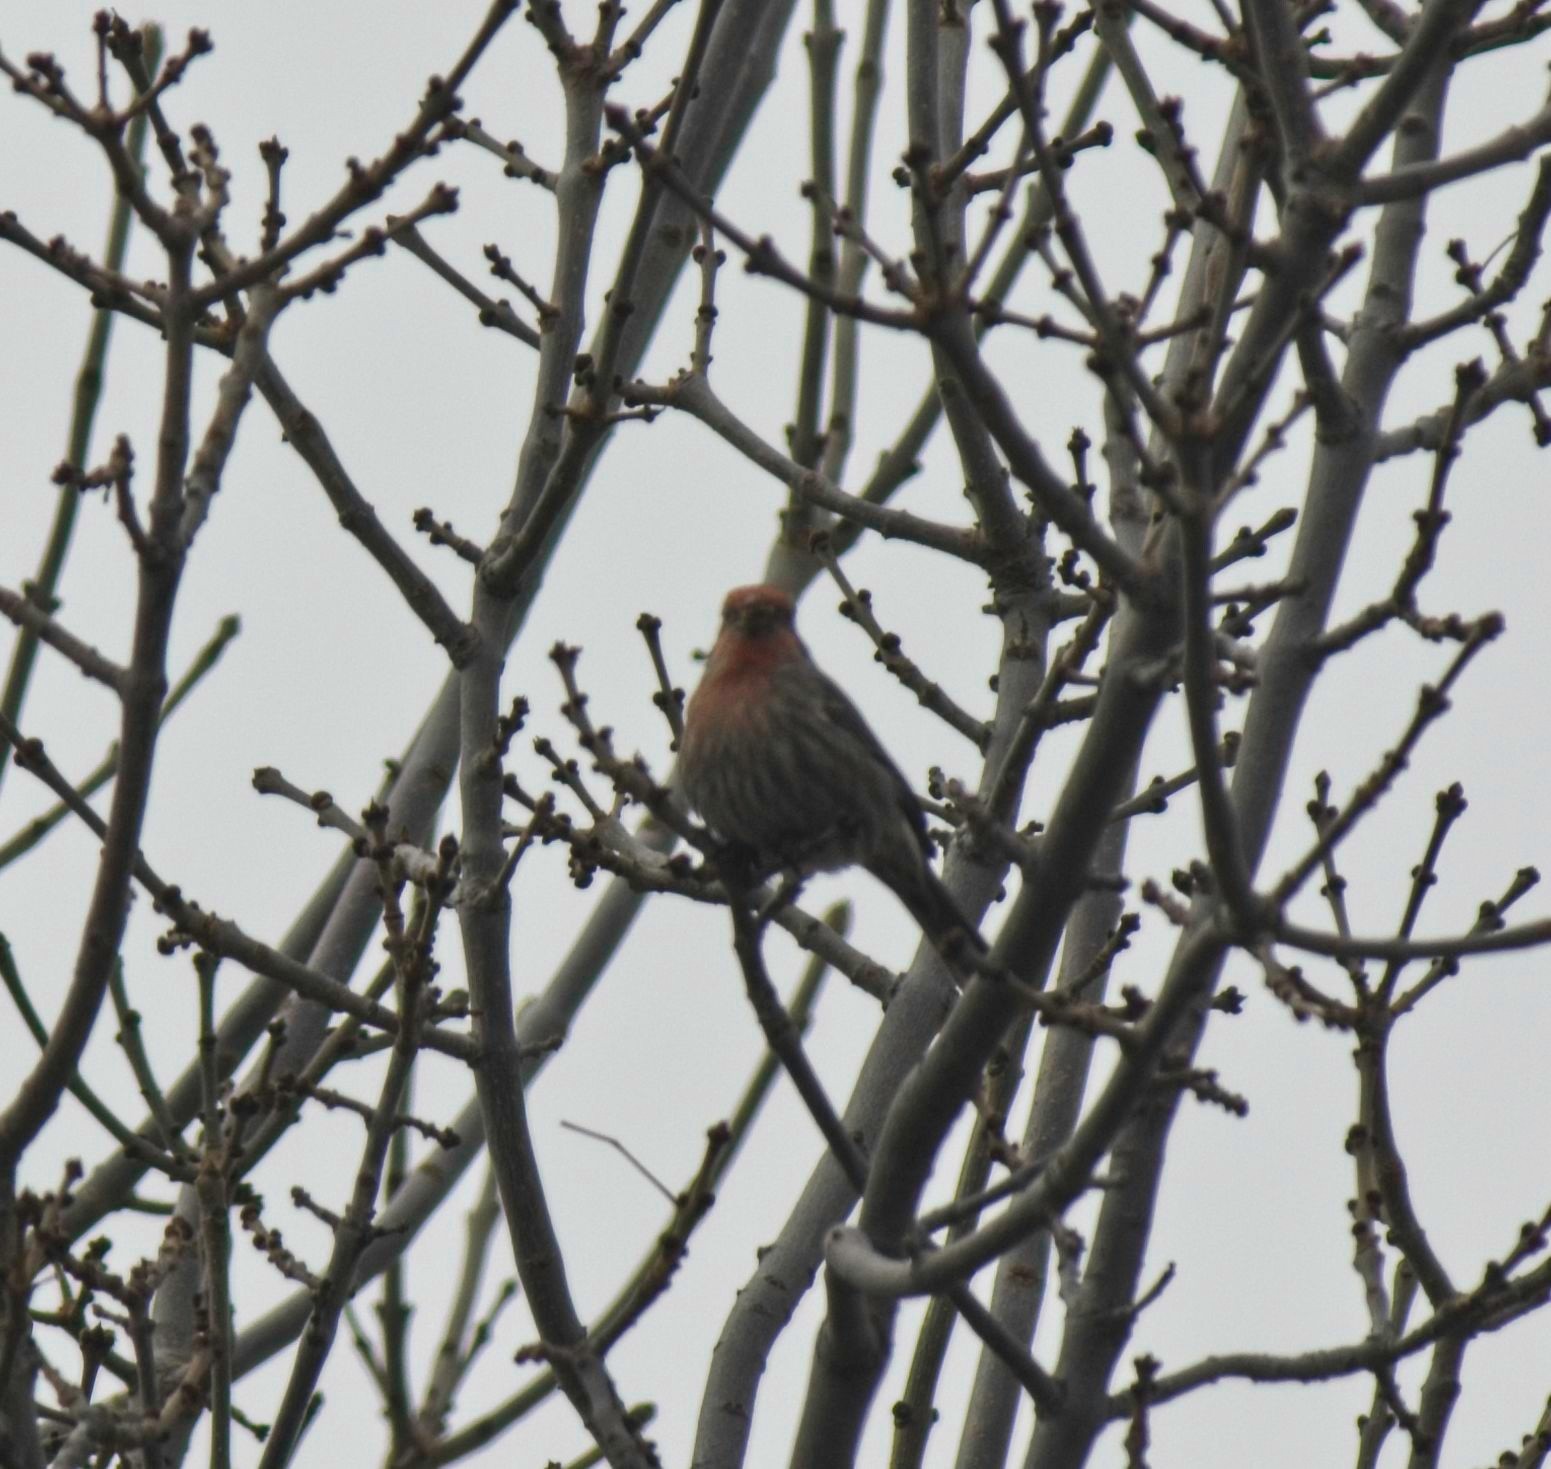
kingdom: Animalia
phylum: Chordata
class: Aves
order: Passeriformes
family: Fringillidae
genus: Haemorhous
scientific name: Haemorhous mexicanus
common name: House finch
